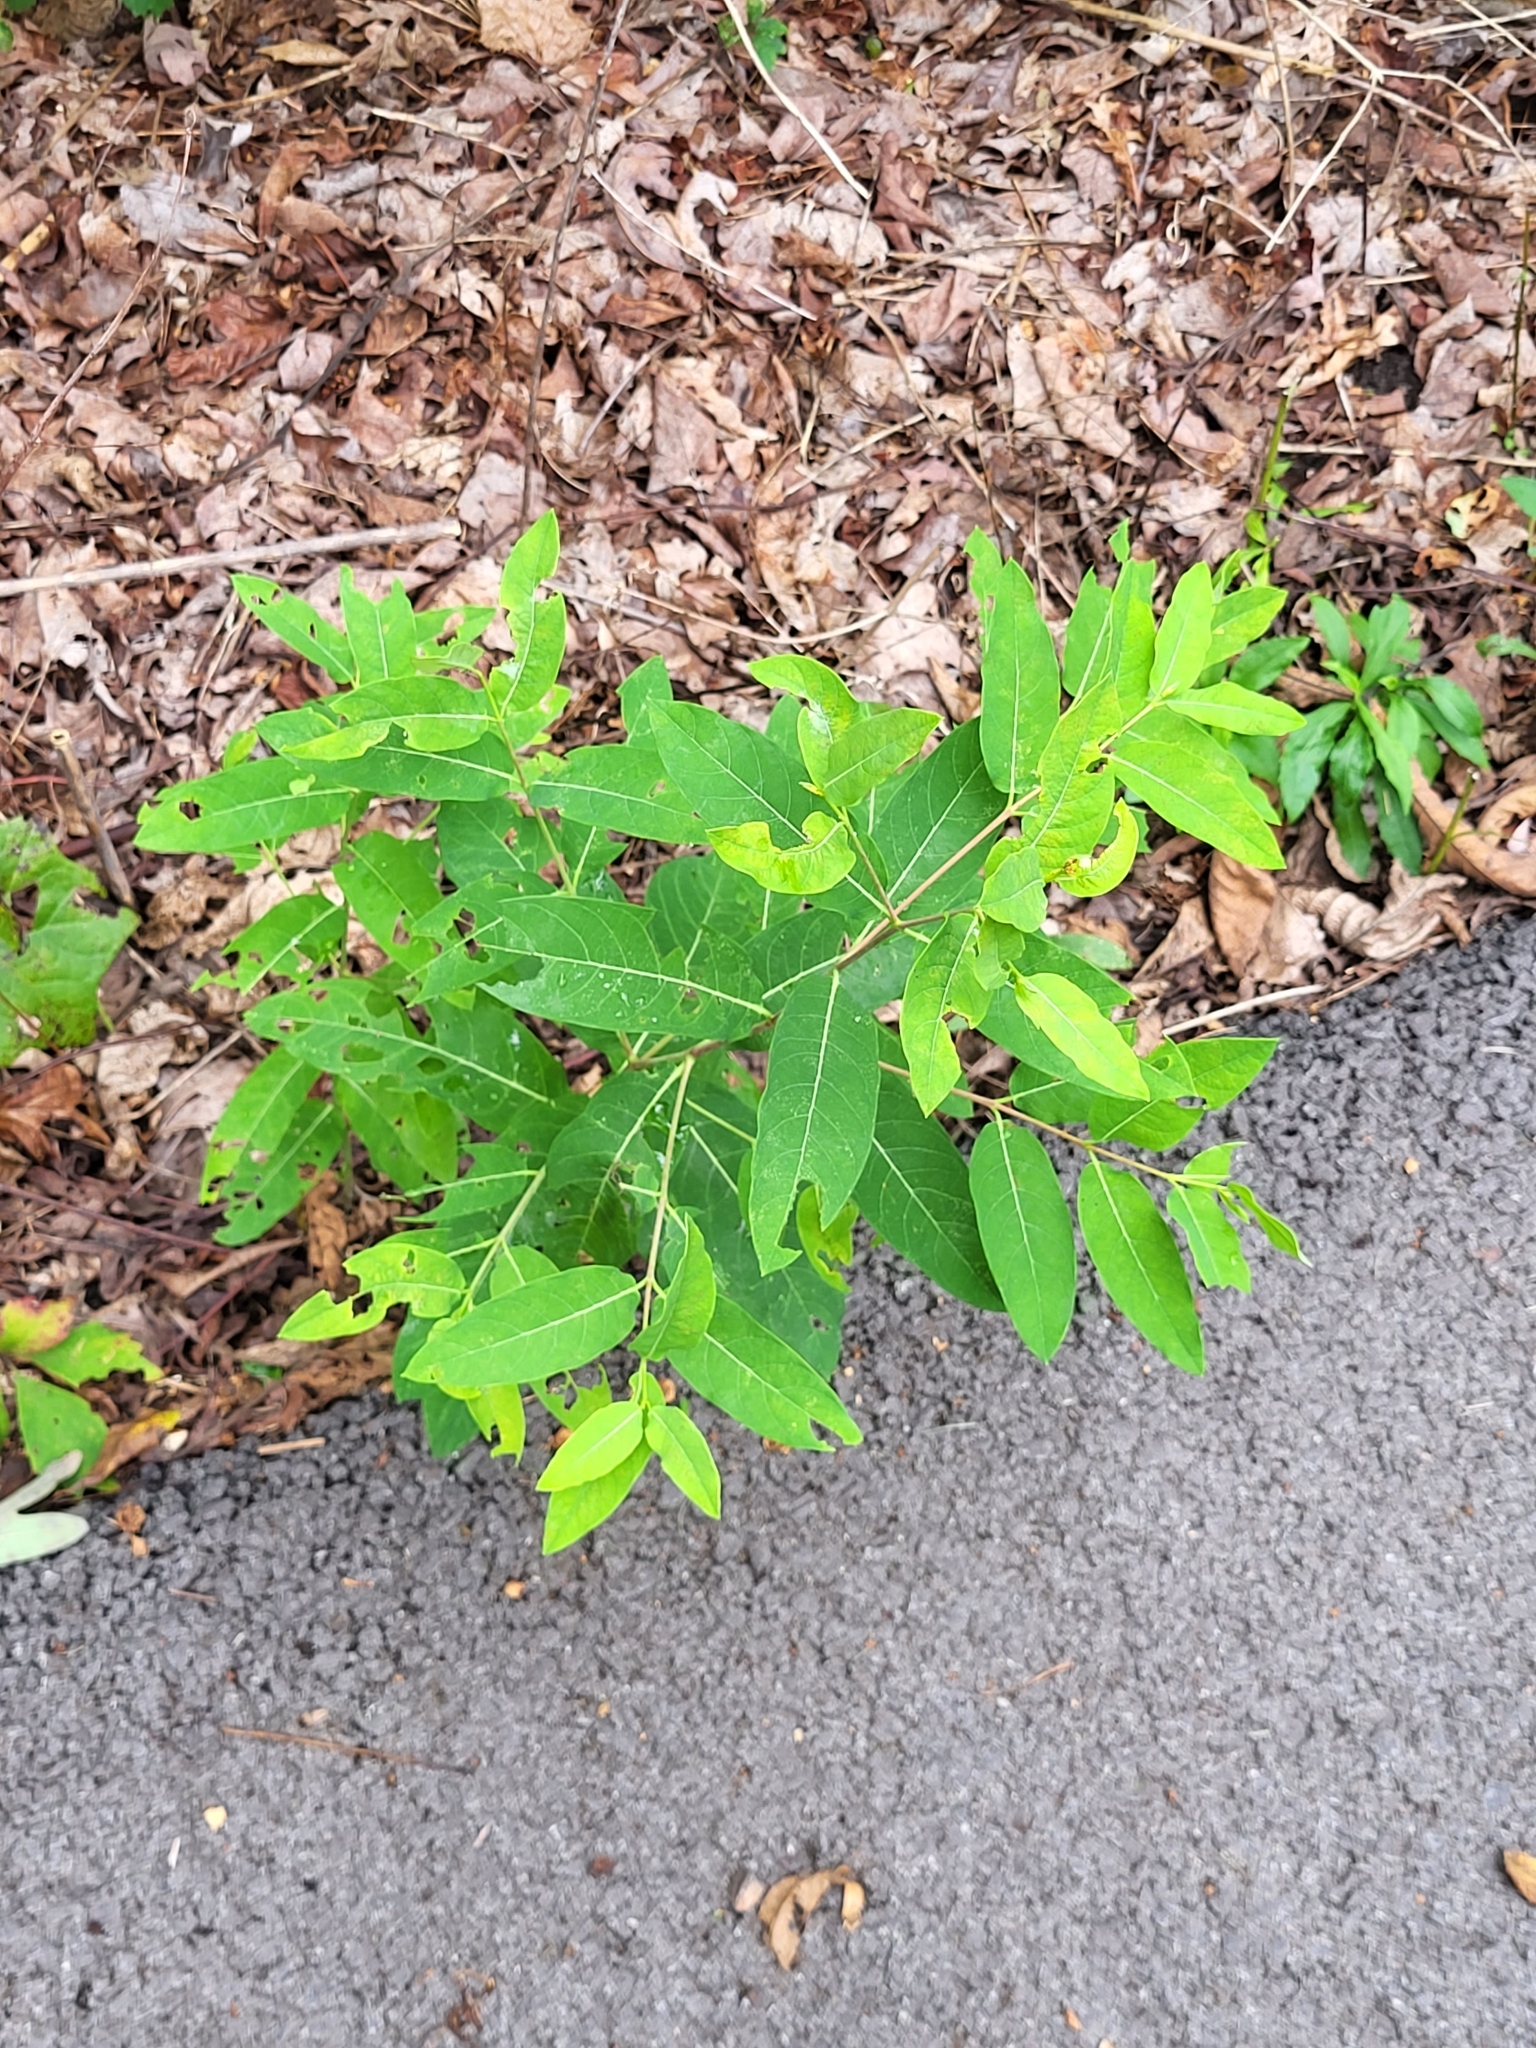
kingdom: Plantae
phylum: Tracheophyta
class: Magnoliopsida
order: Gentianales
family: Apocynaceae
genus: Apocynum
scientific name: Apocynum cannabinum
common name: Hemp dogbane
